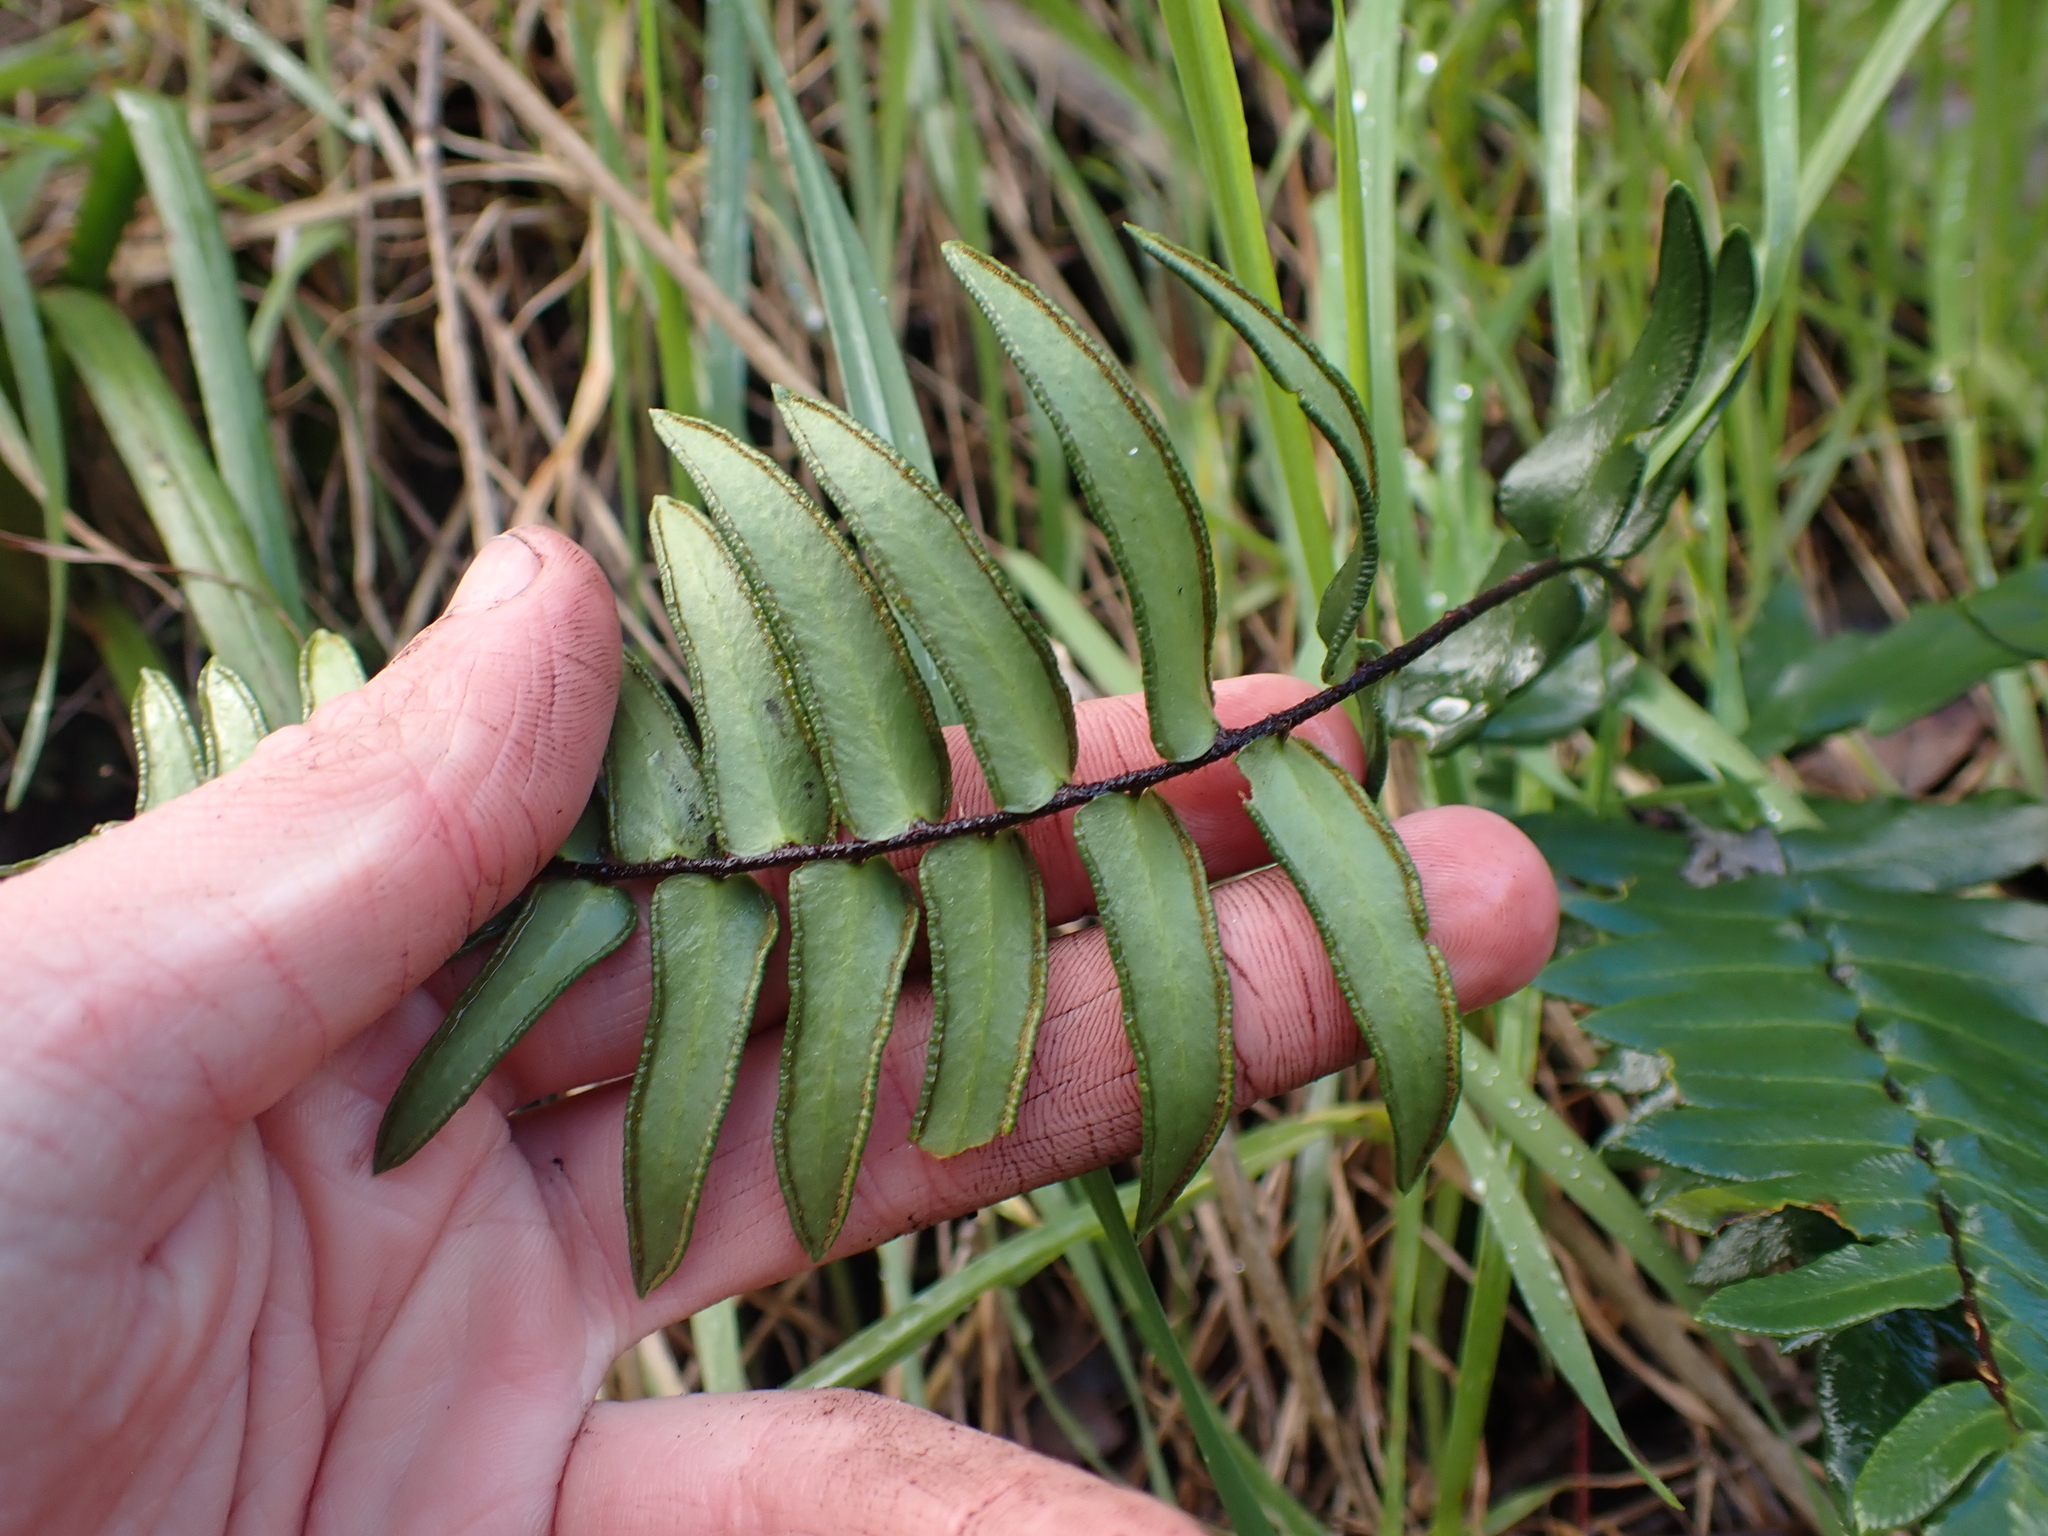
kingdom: Plantae
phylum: Tracheophyta
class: Polypodiopsida
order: Polypodiales
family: Pteridaceae
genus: Pellaea
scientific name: Pellaea falcata
